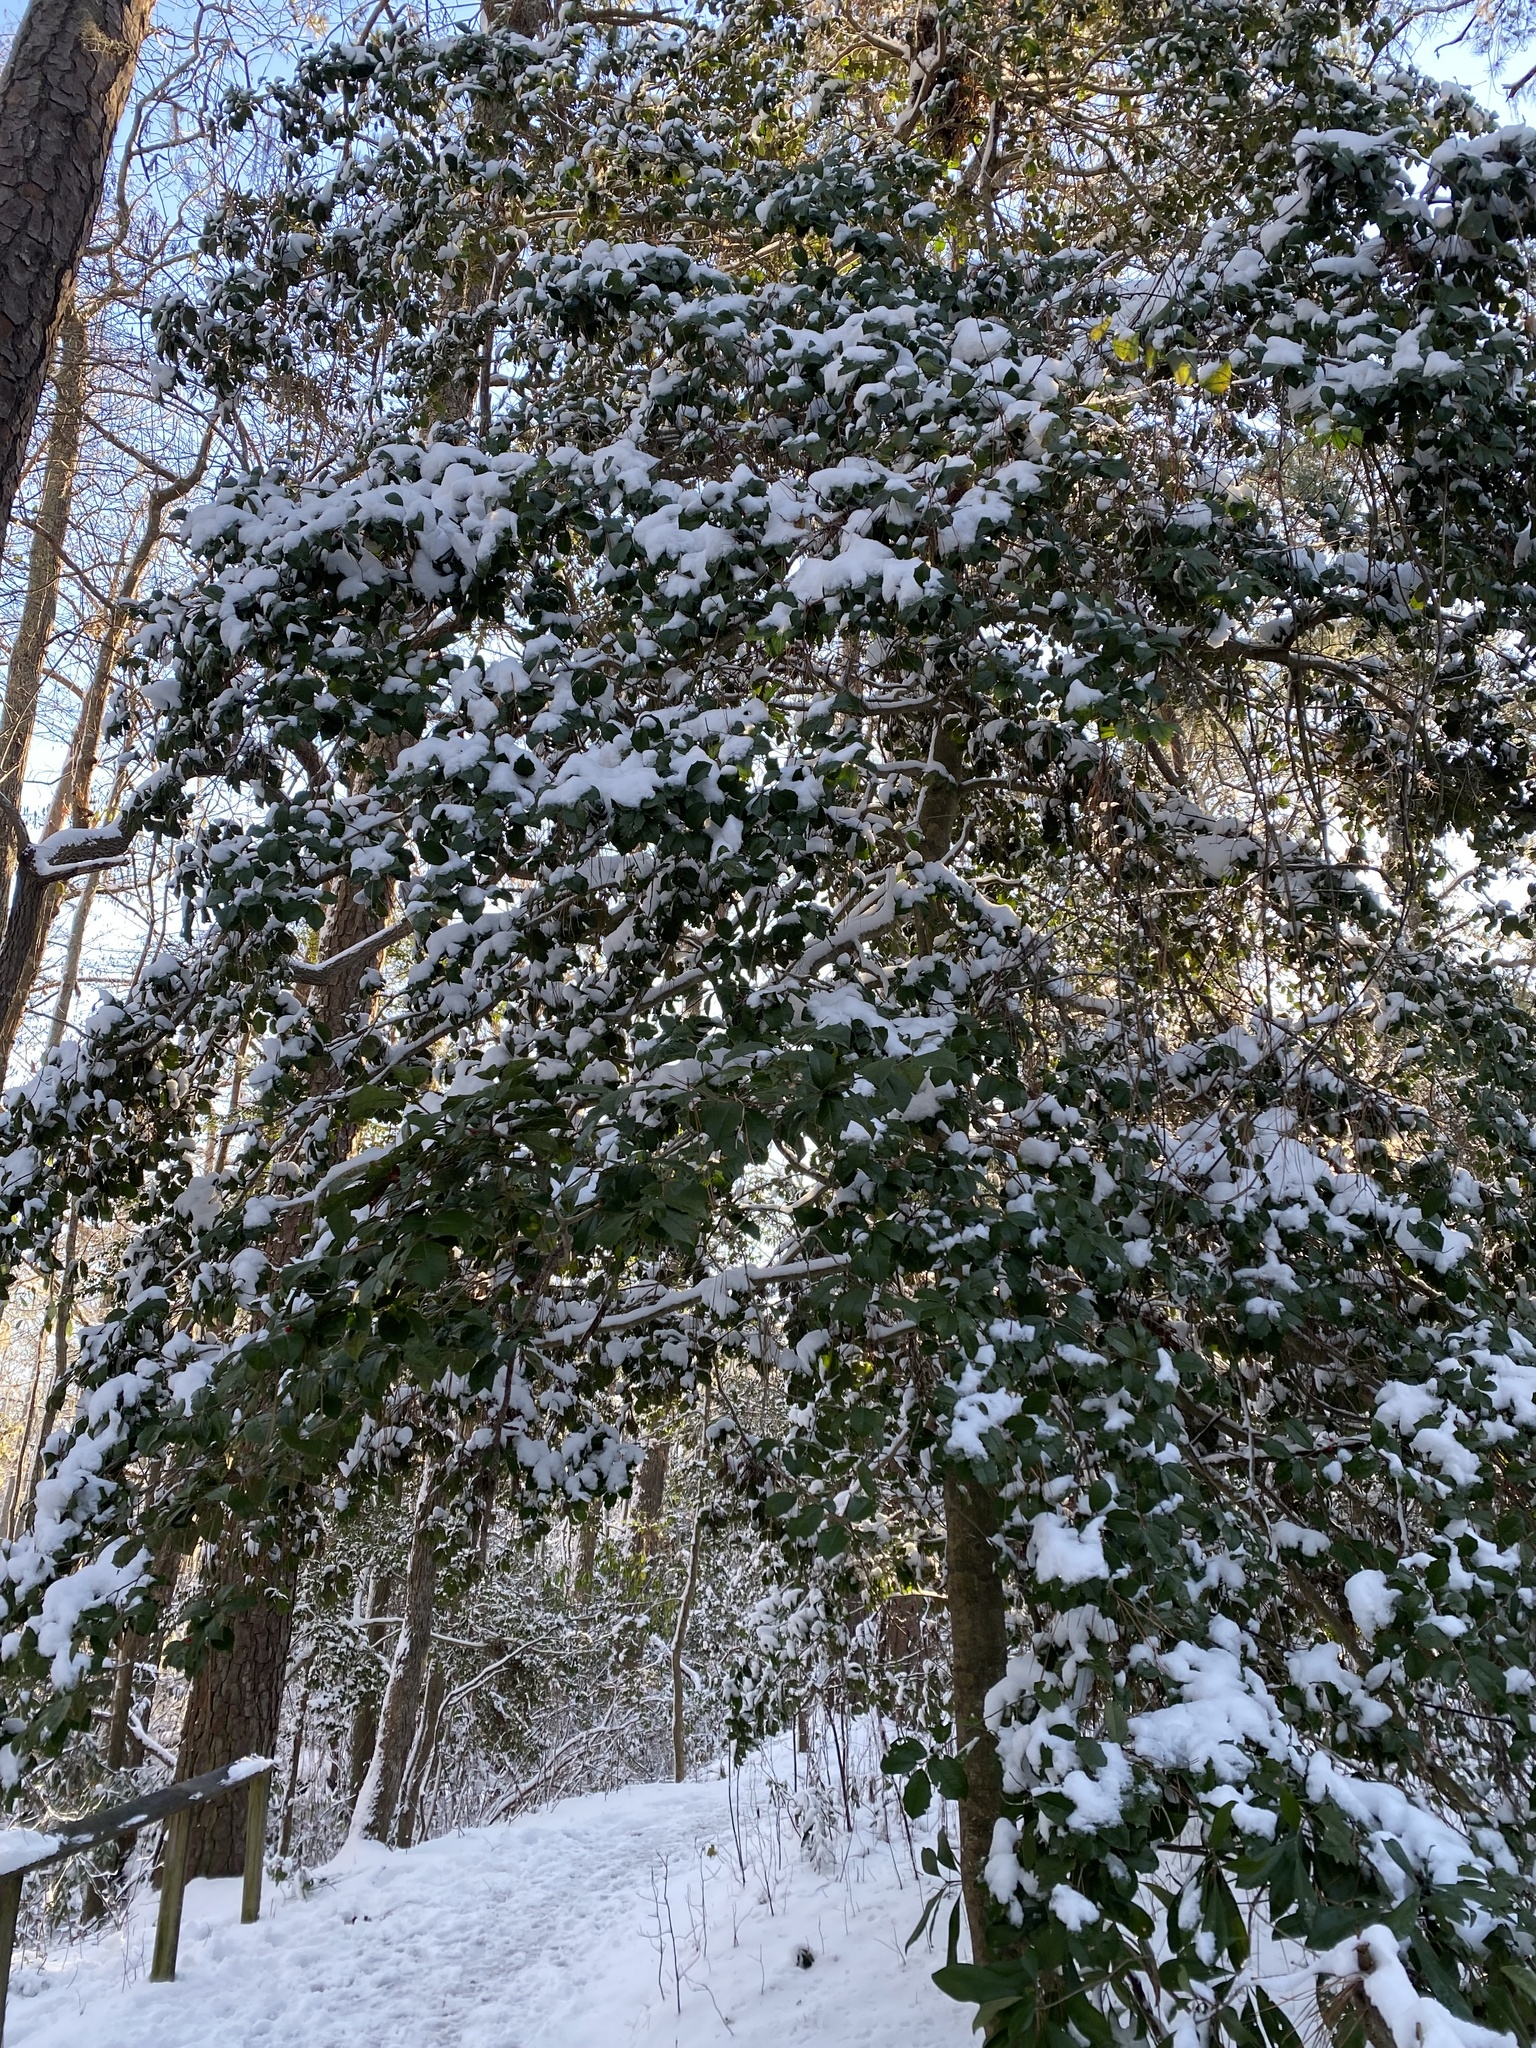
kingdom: Plantae
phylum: Tracheophyta
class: Magnoliopsida
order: Aquifoliales
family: Aquifoliaceae
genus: Ilex
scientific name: Ilex opaca
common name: American holly
